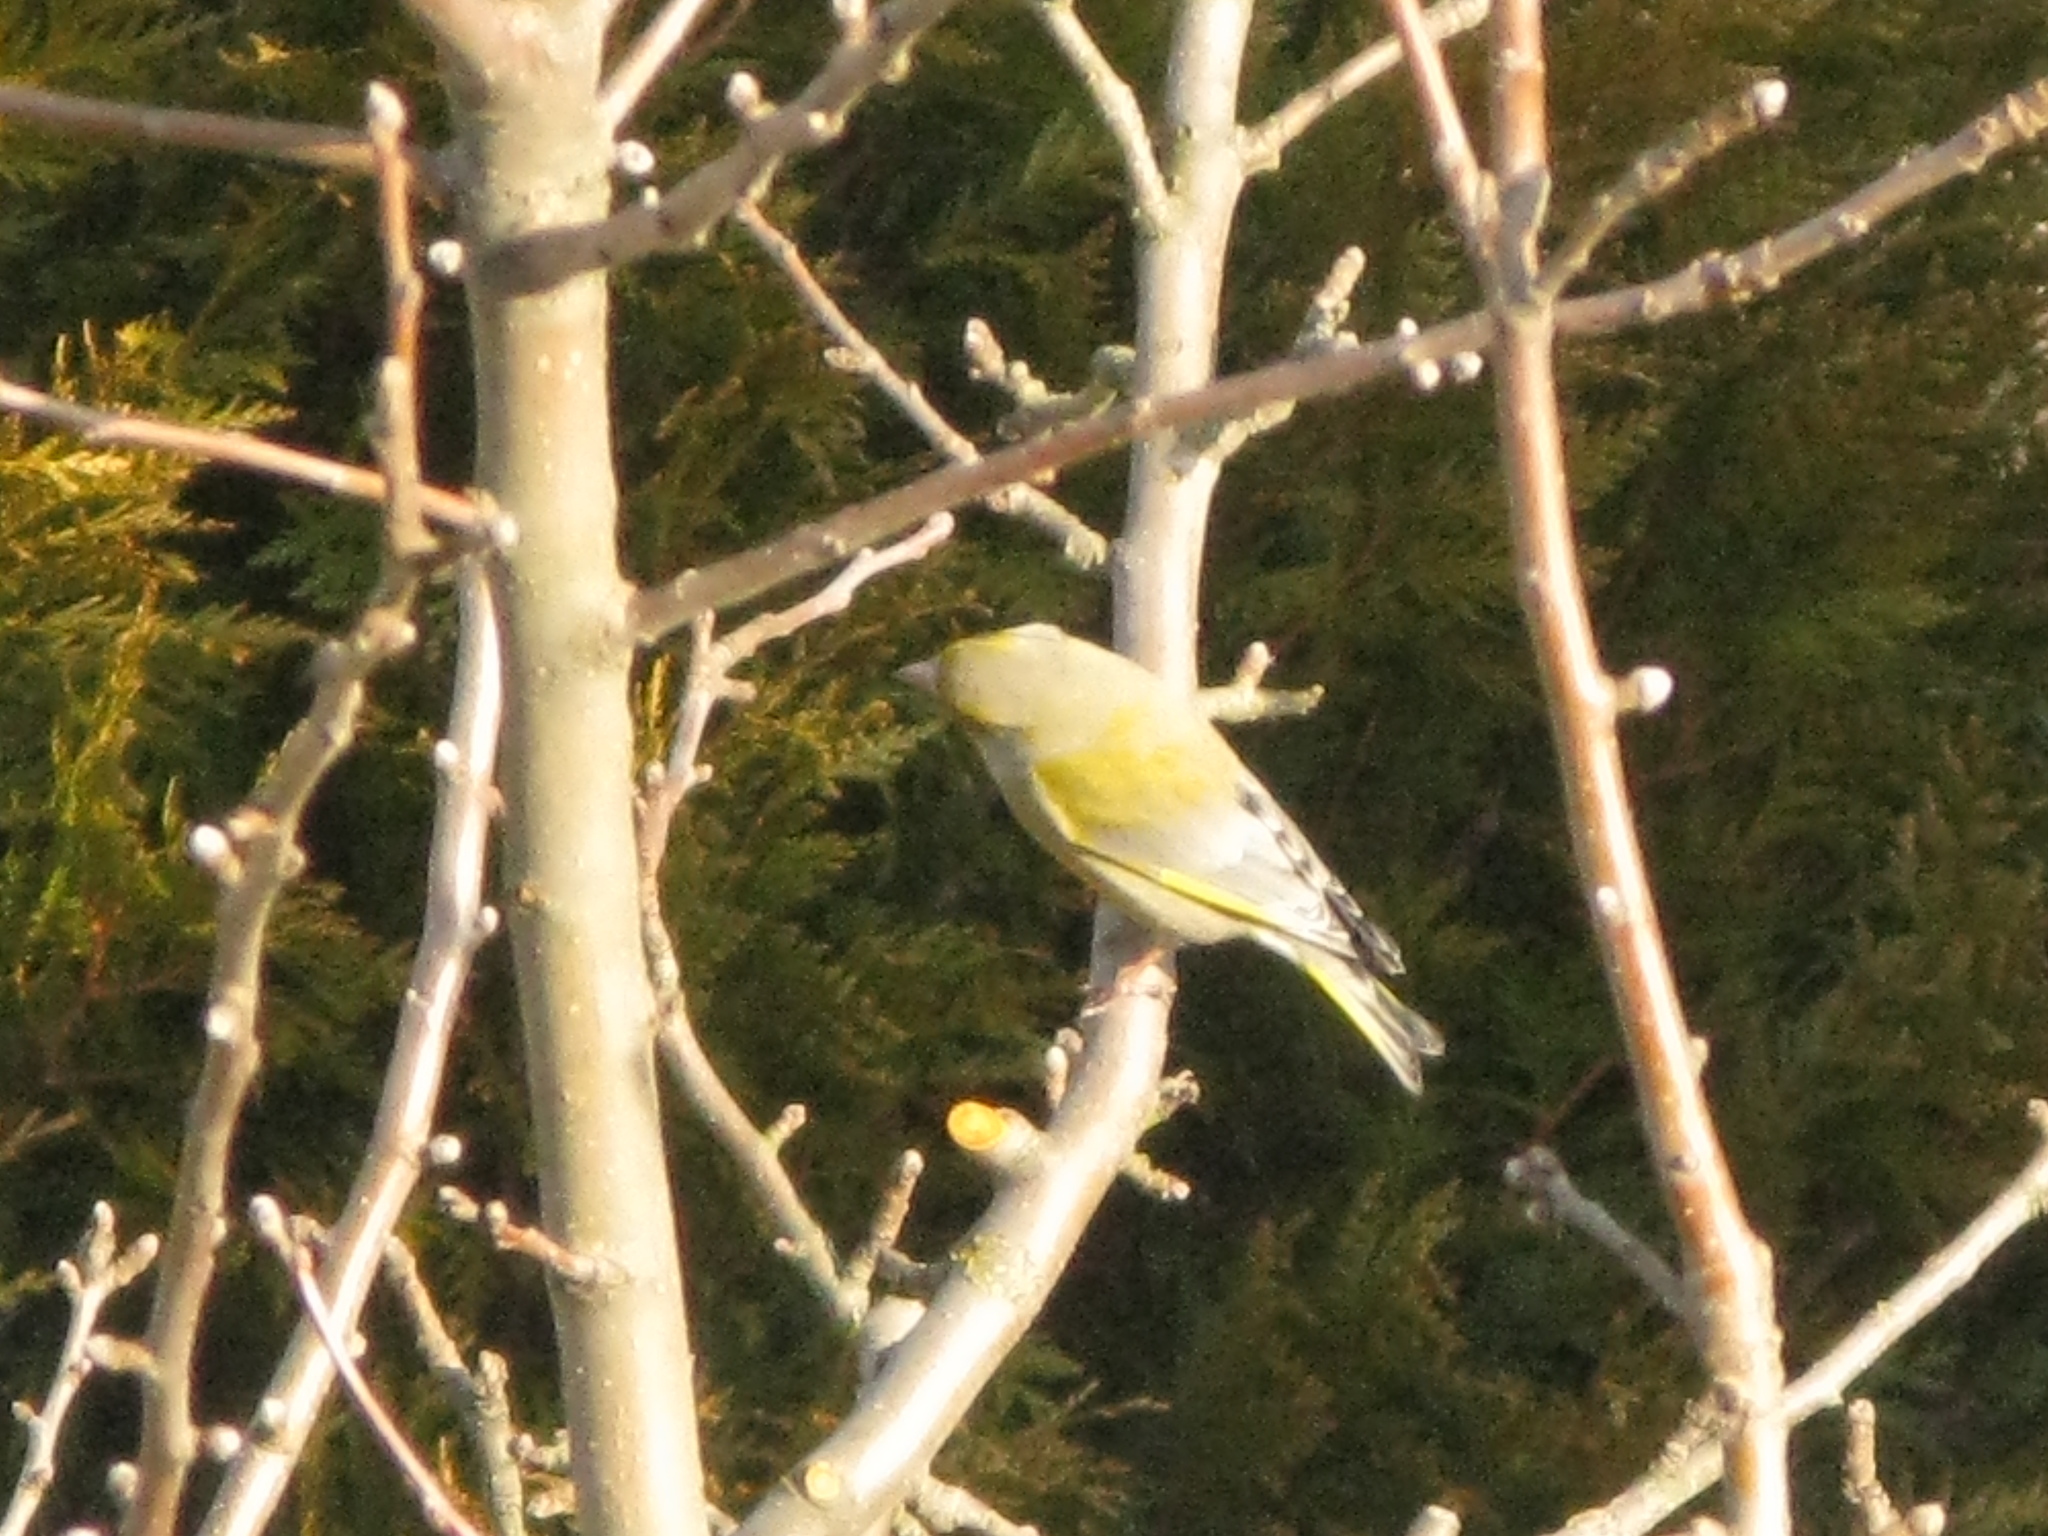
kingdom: Plantae
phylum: Tracheophyta
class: Liliopsida
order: Poales
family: Poaceae
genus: Chloris
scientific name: Chloris chloris
